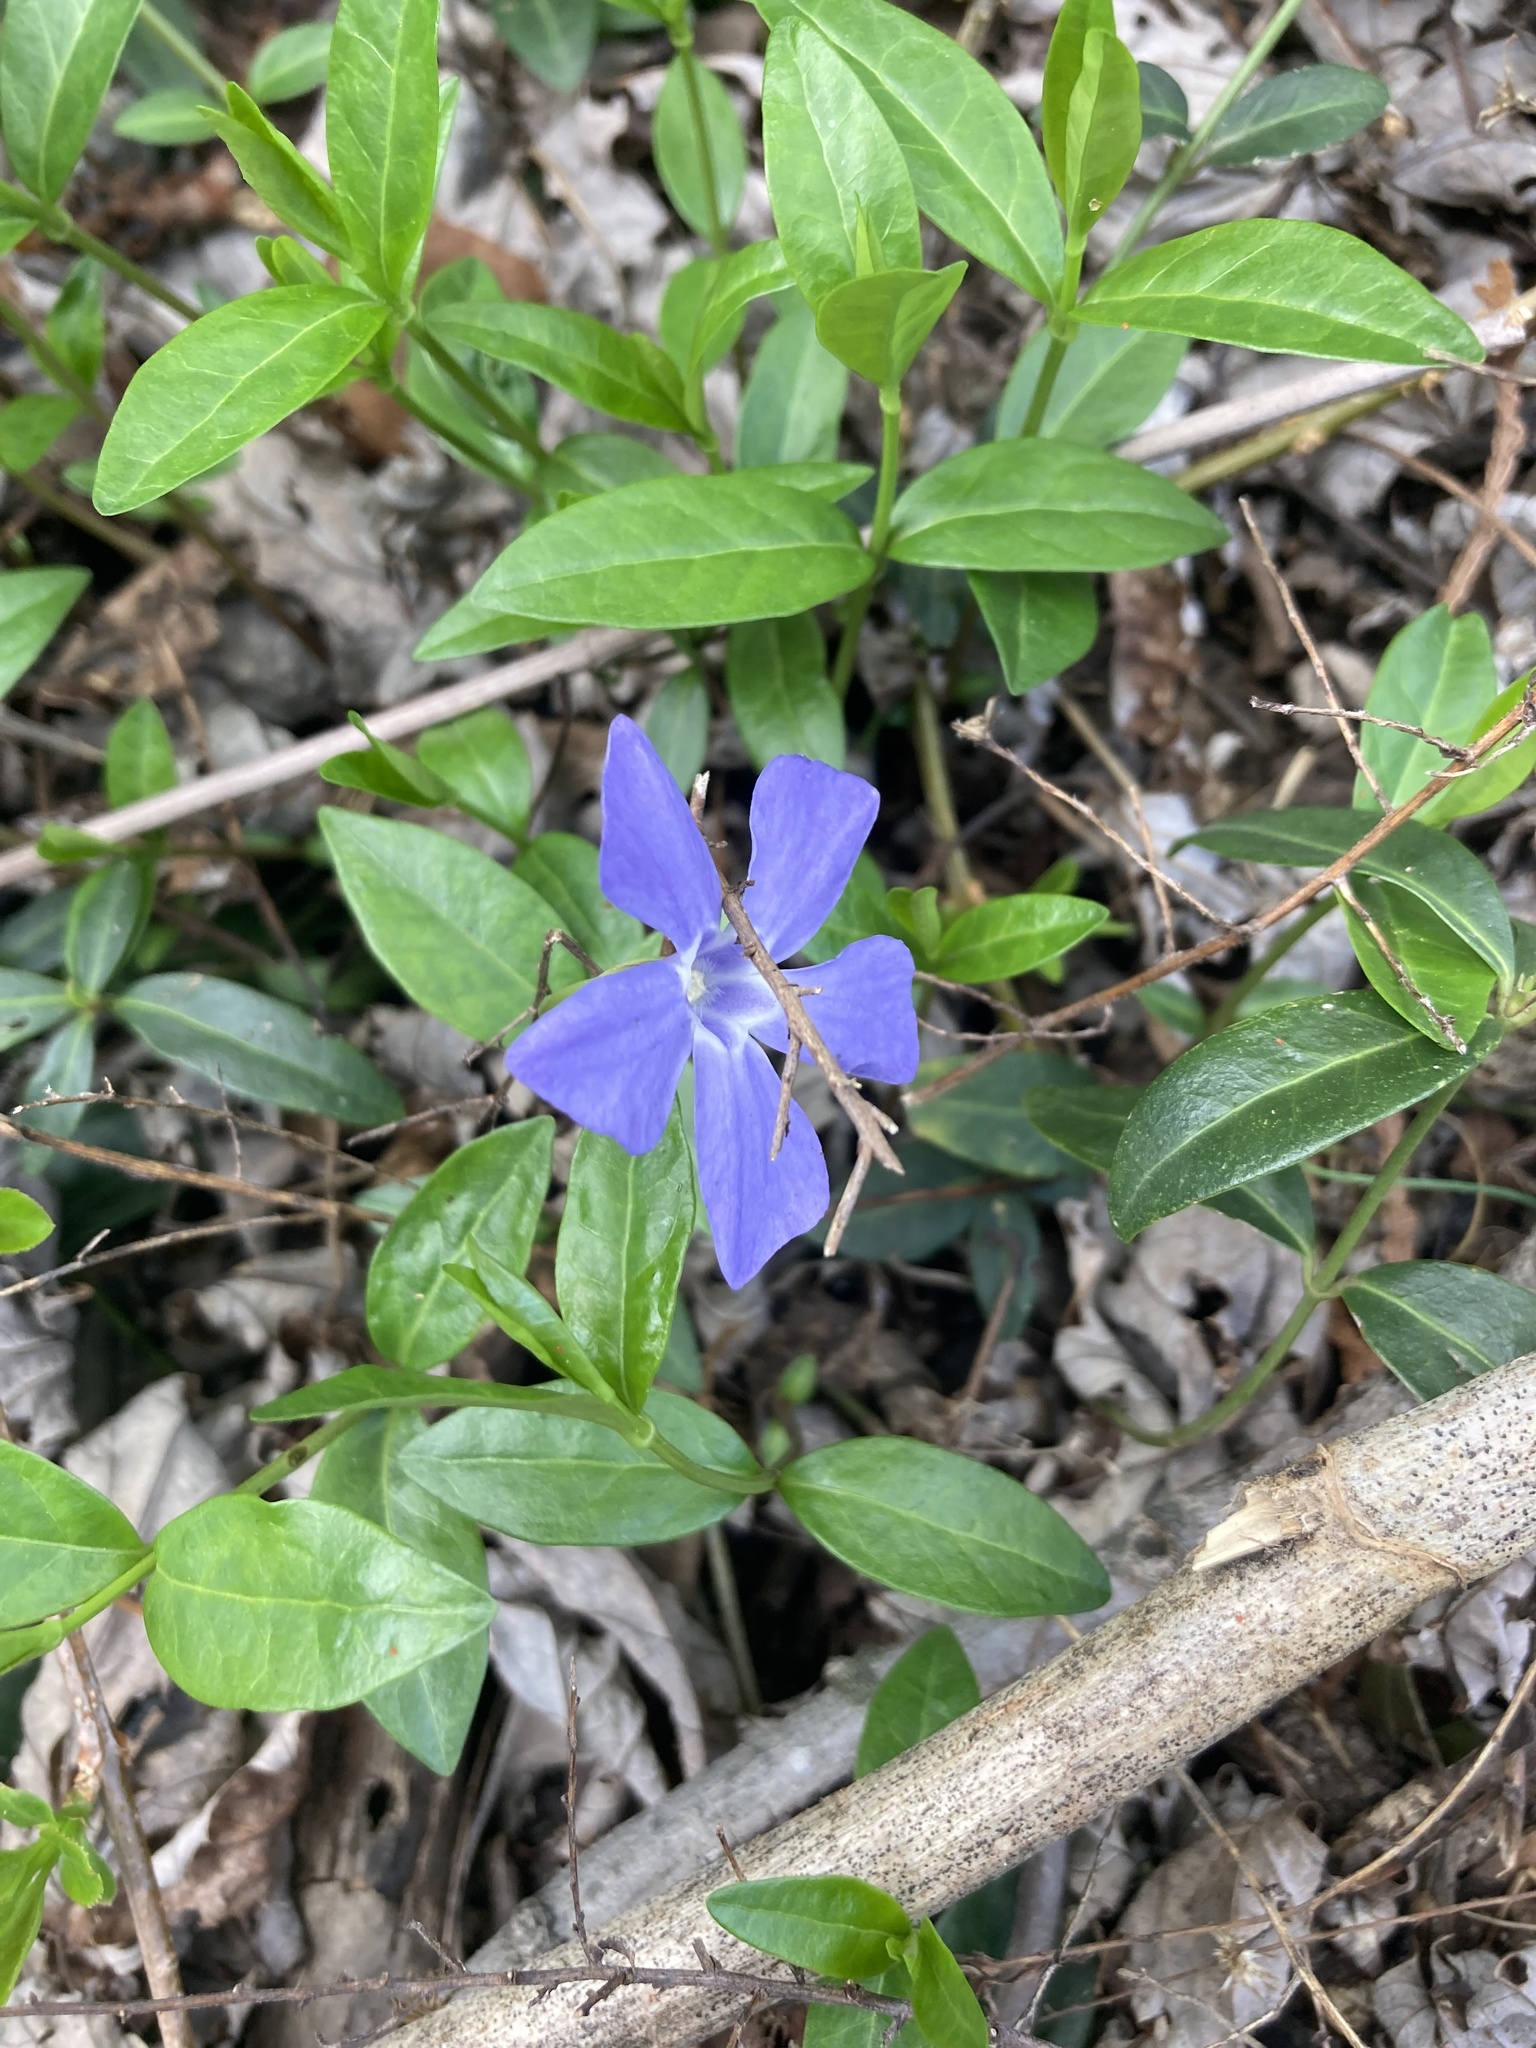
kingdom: Plantae
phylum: Tracheophyta
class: Magnoliopsida
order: Gentianales
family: Apocynaceae
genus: Vinca
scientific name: Vinca minor
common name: Lesser periwinkle
